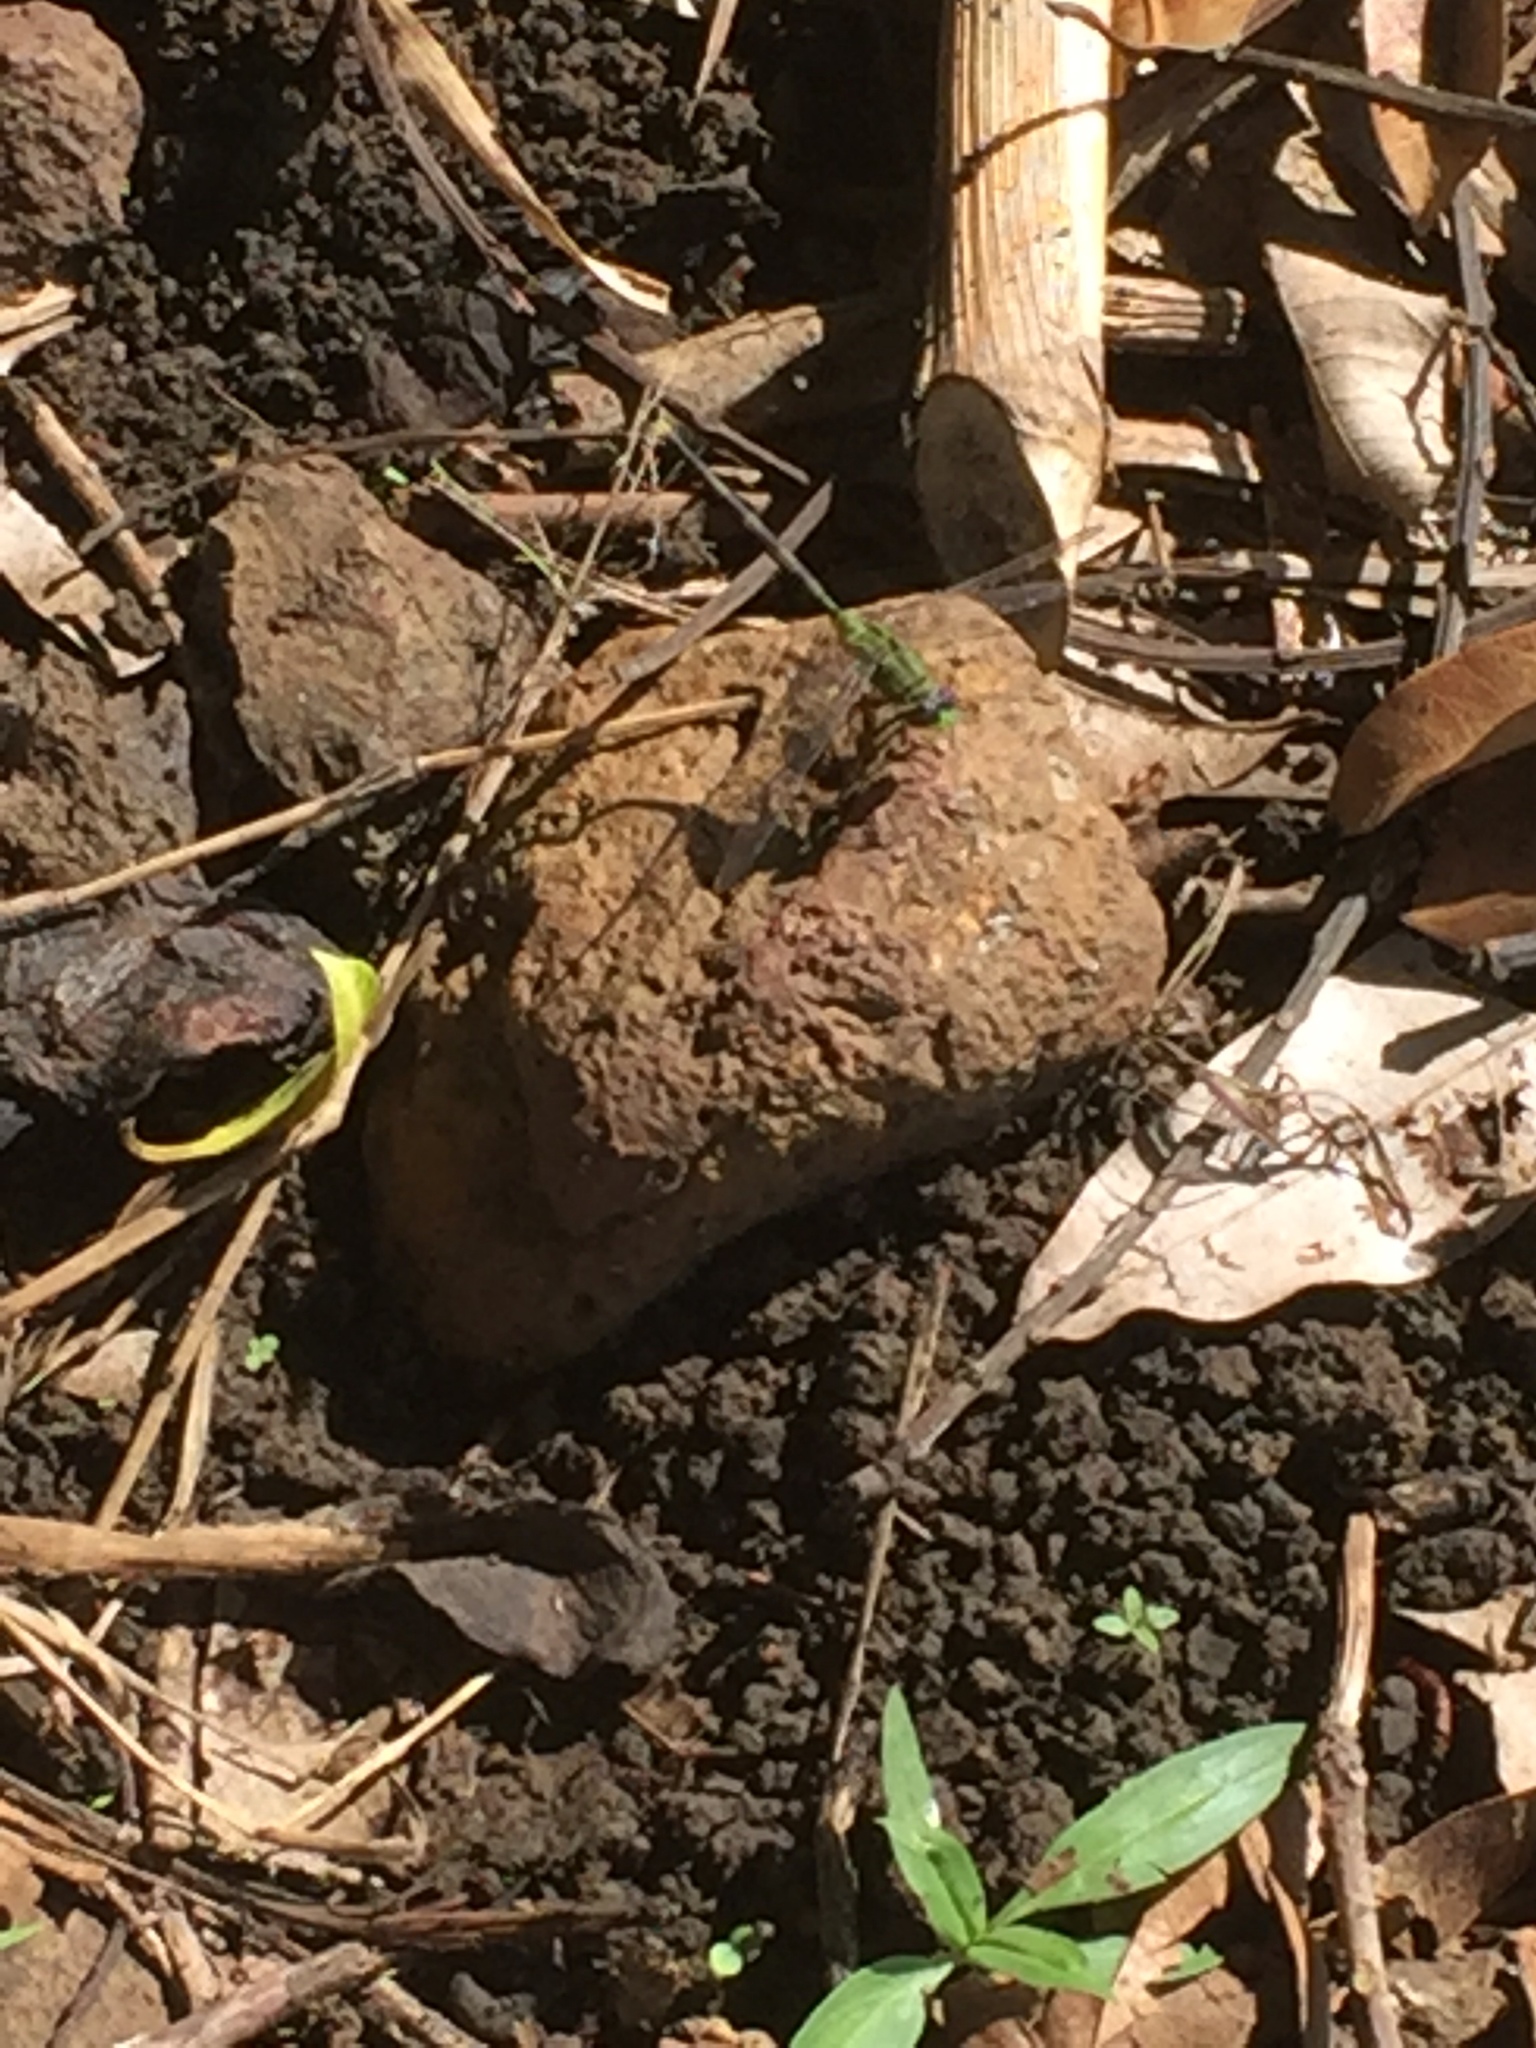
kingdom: Animalia
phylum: Arthropoda
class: Insecta
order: Odonata
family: Libellulidae
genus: Erythemis
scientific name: Erythemis vesiculosa
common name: Great pondhawk
